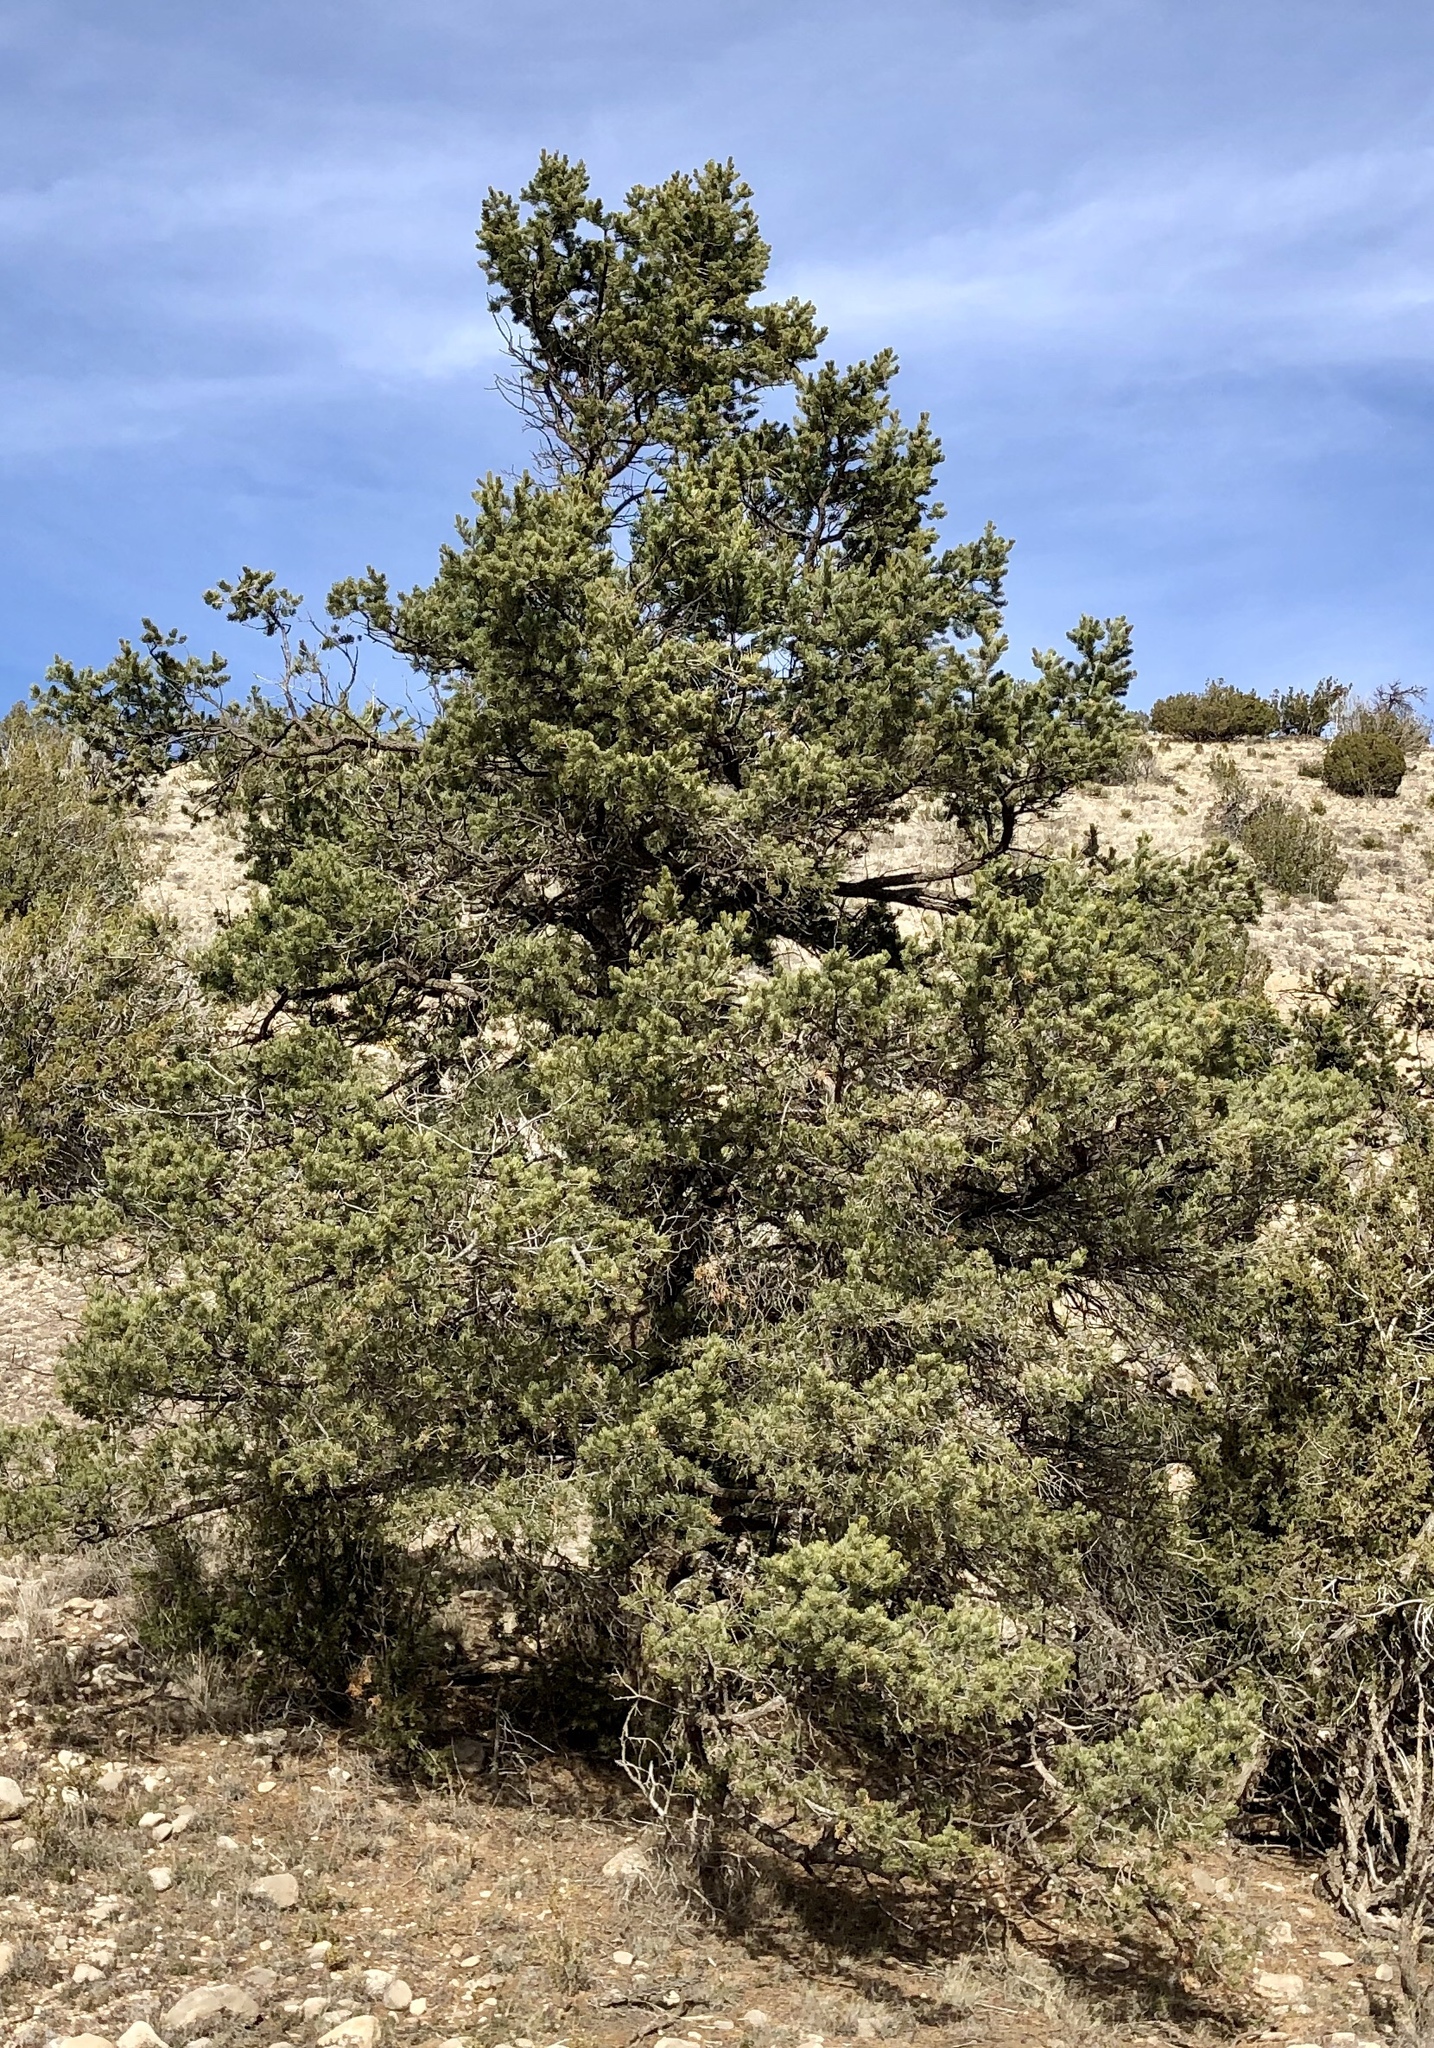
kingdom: Plantae
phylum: Tracheophyta
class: Pinopsida
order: Pinales
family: Pinaceae
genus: Pinus
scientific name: Pinus edulis
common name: Colorado pinyon
